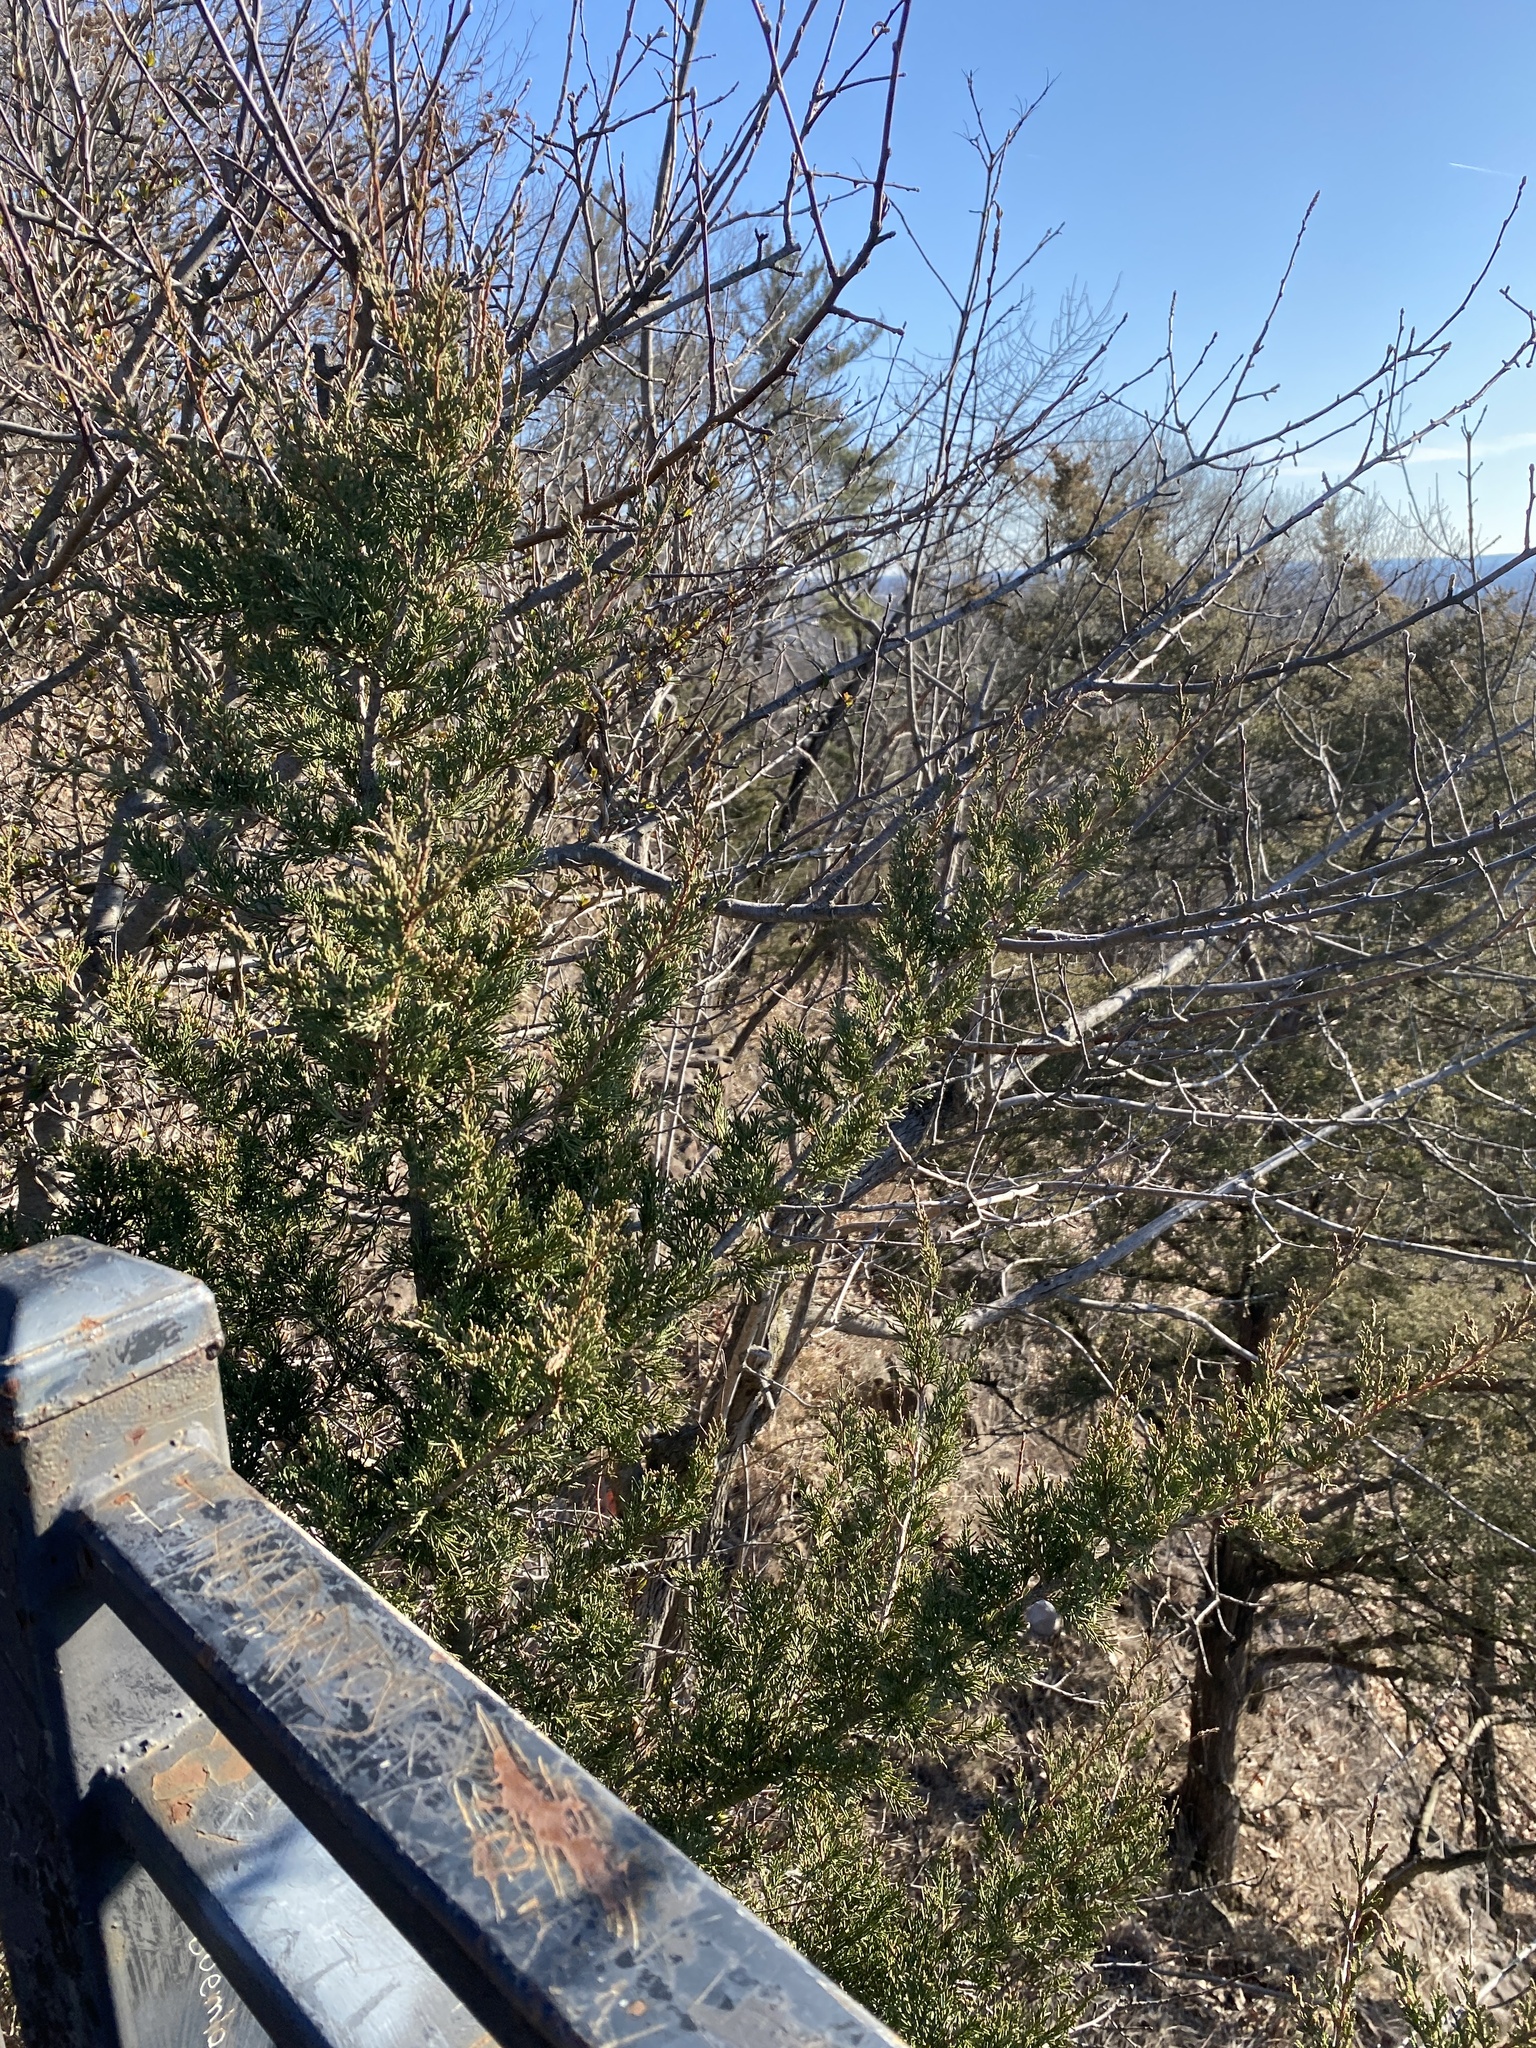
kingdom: Plantae
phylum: Tracheophyta
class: Pinopsida
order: Pinales
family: Cupressaceae
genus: Juniperus
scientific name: Juniperus virginiana
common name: Red juniper
